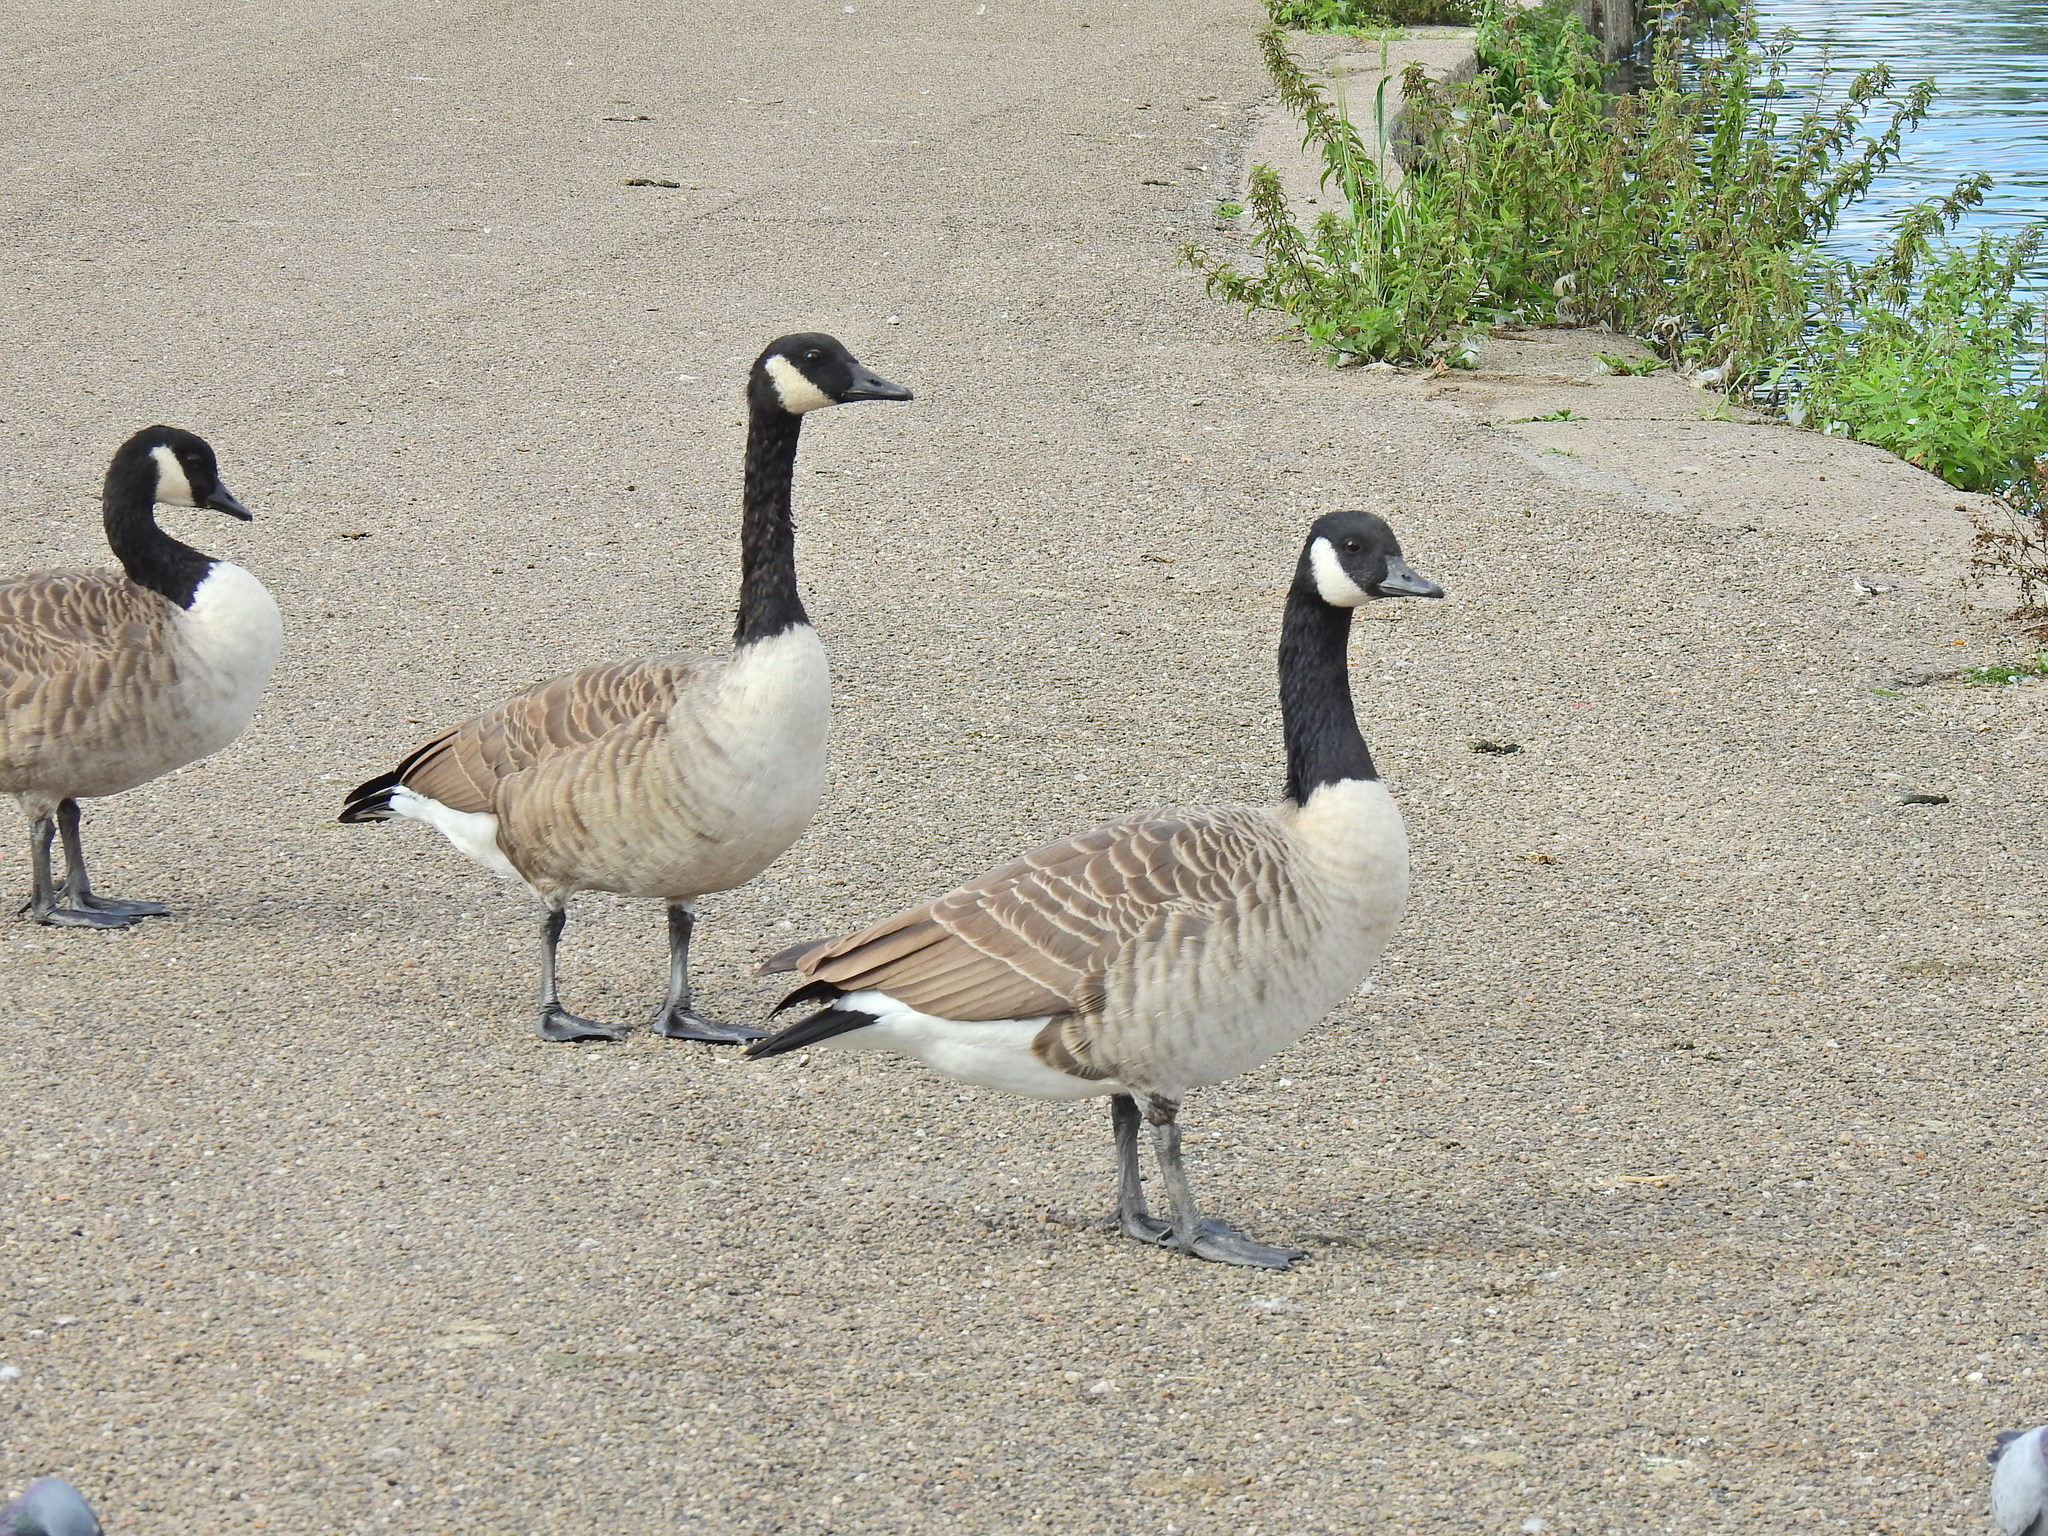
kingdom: Animalia
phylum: Chordata
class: Aves
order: Anseriformes
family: Anatidae
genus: Branta
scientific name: Branta canadensis
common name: Canada goose
